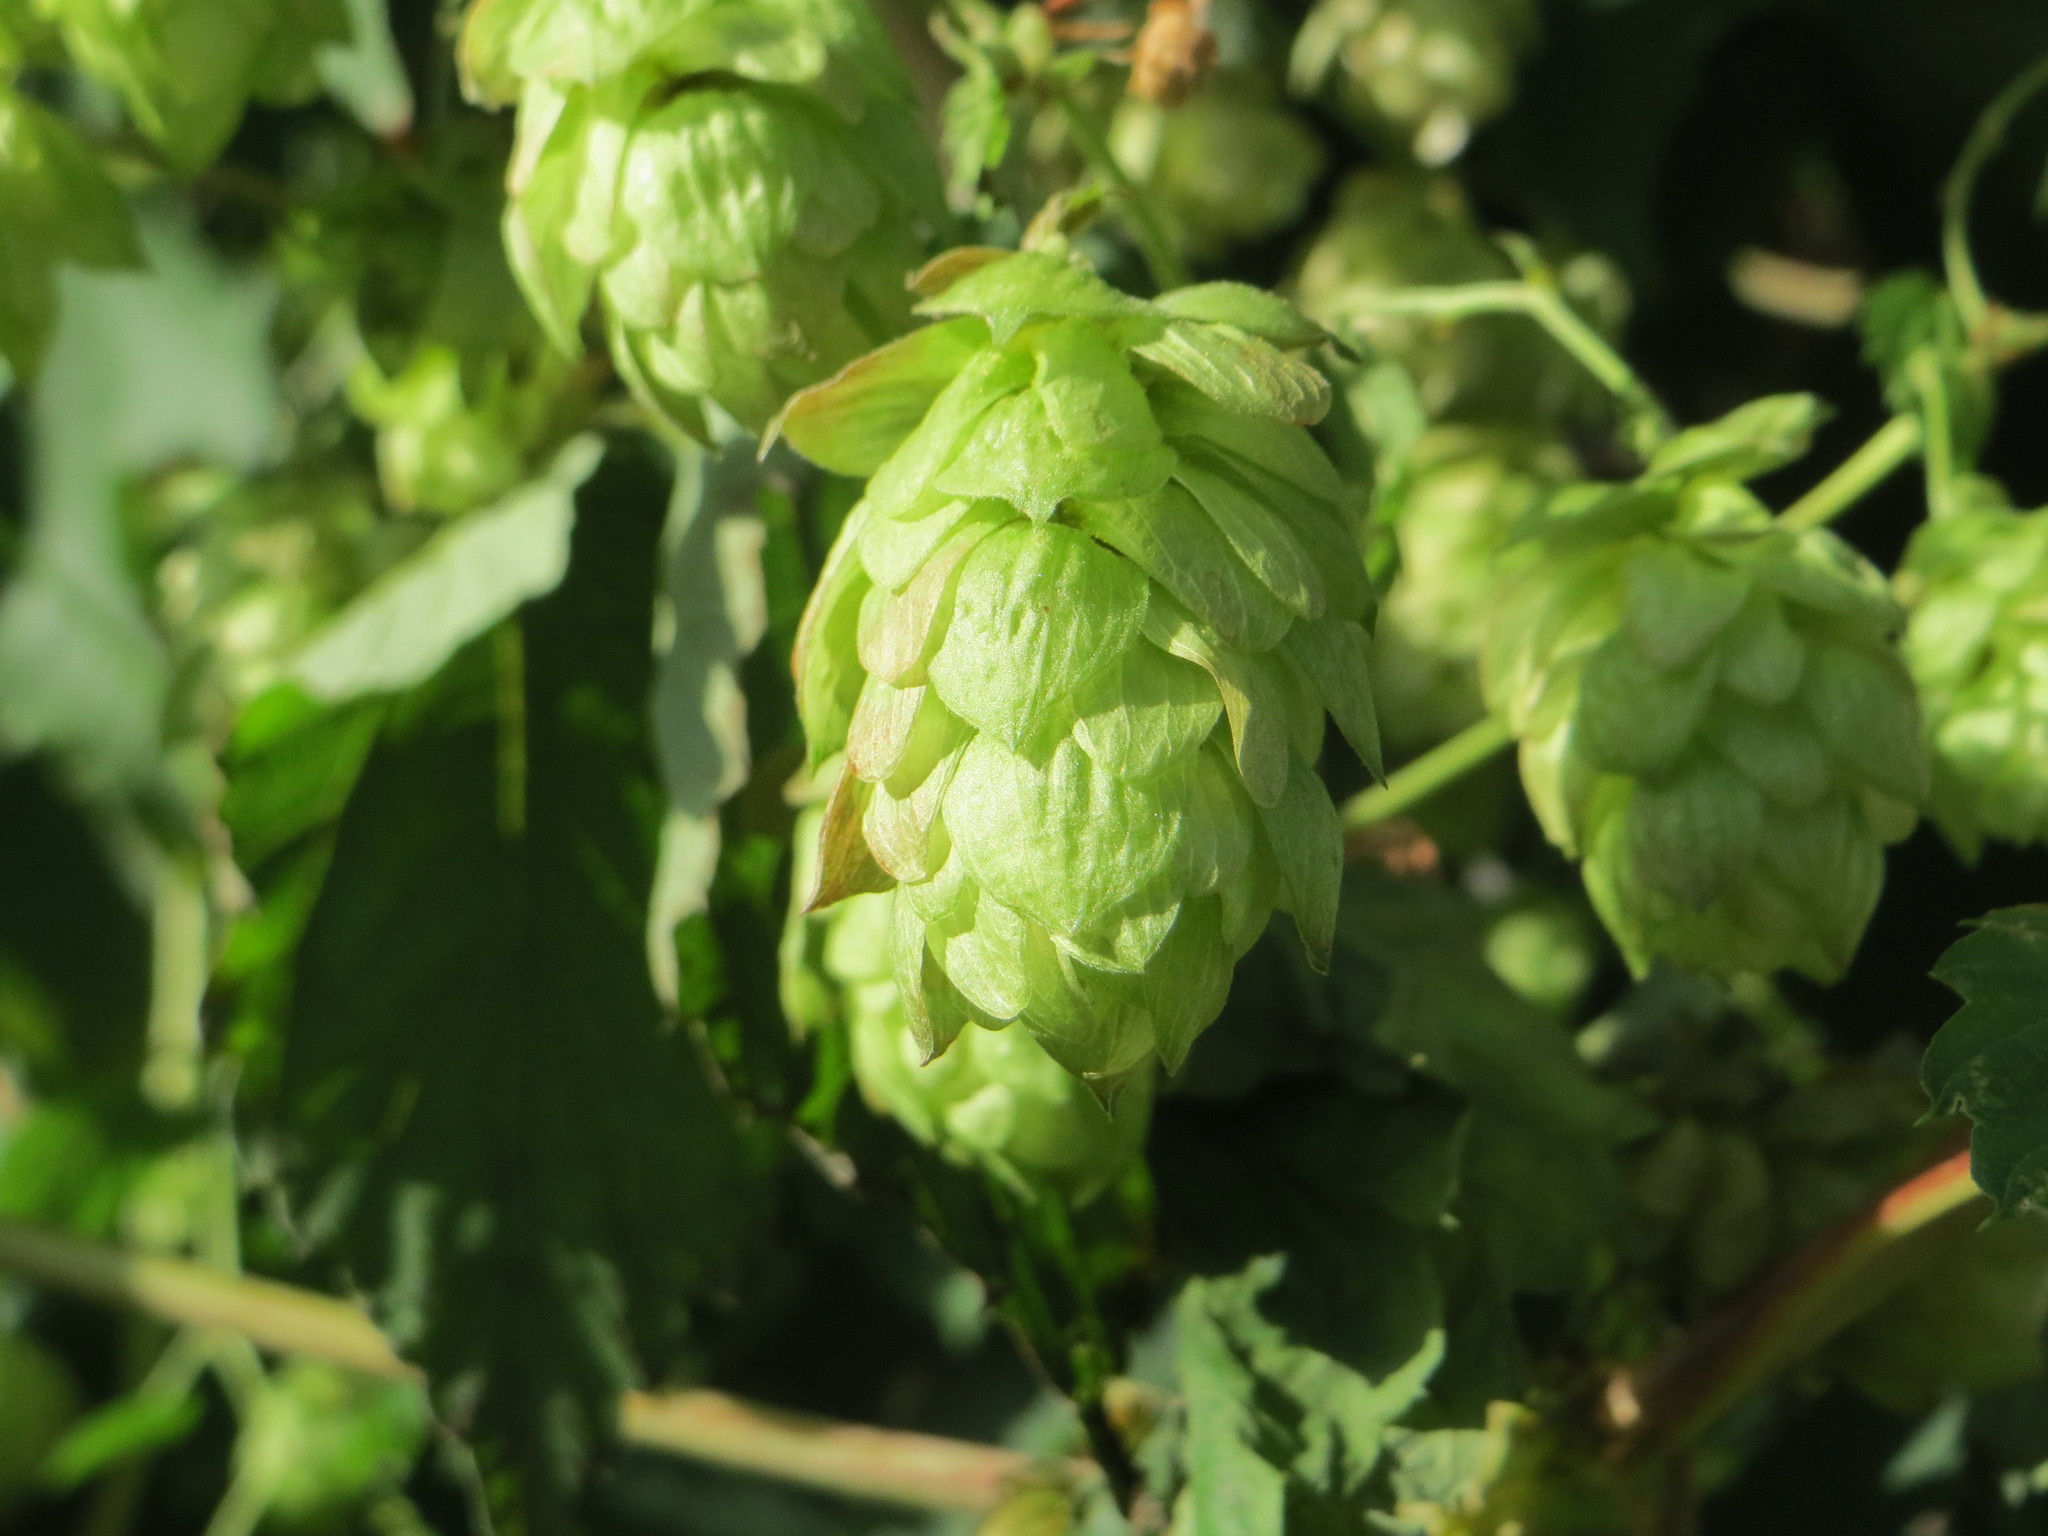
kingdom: Plantae
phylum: Tracheophyta
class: Magnoliopsida
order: Rosales
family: Cannabaceae
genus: Humulus
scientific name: Humulus lupulus
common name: Hop
